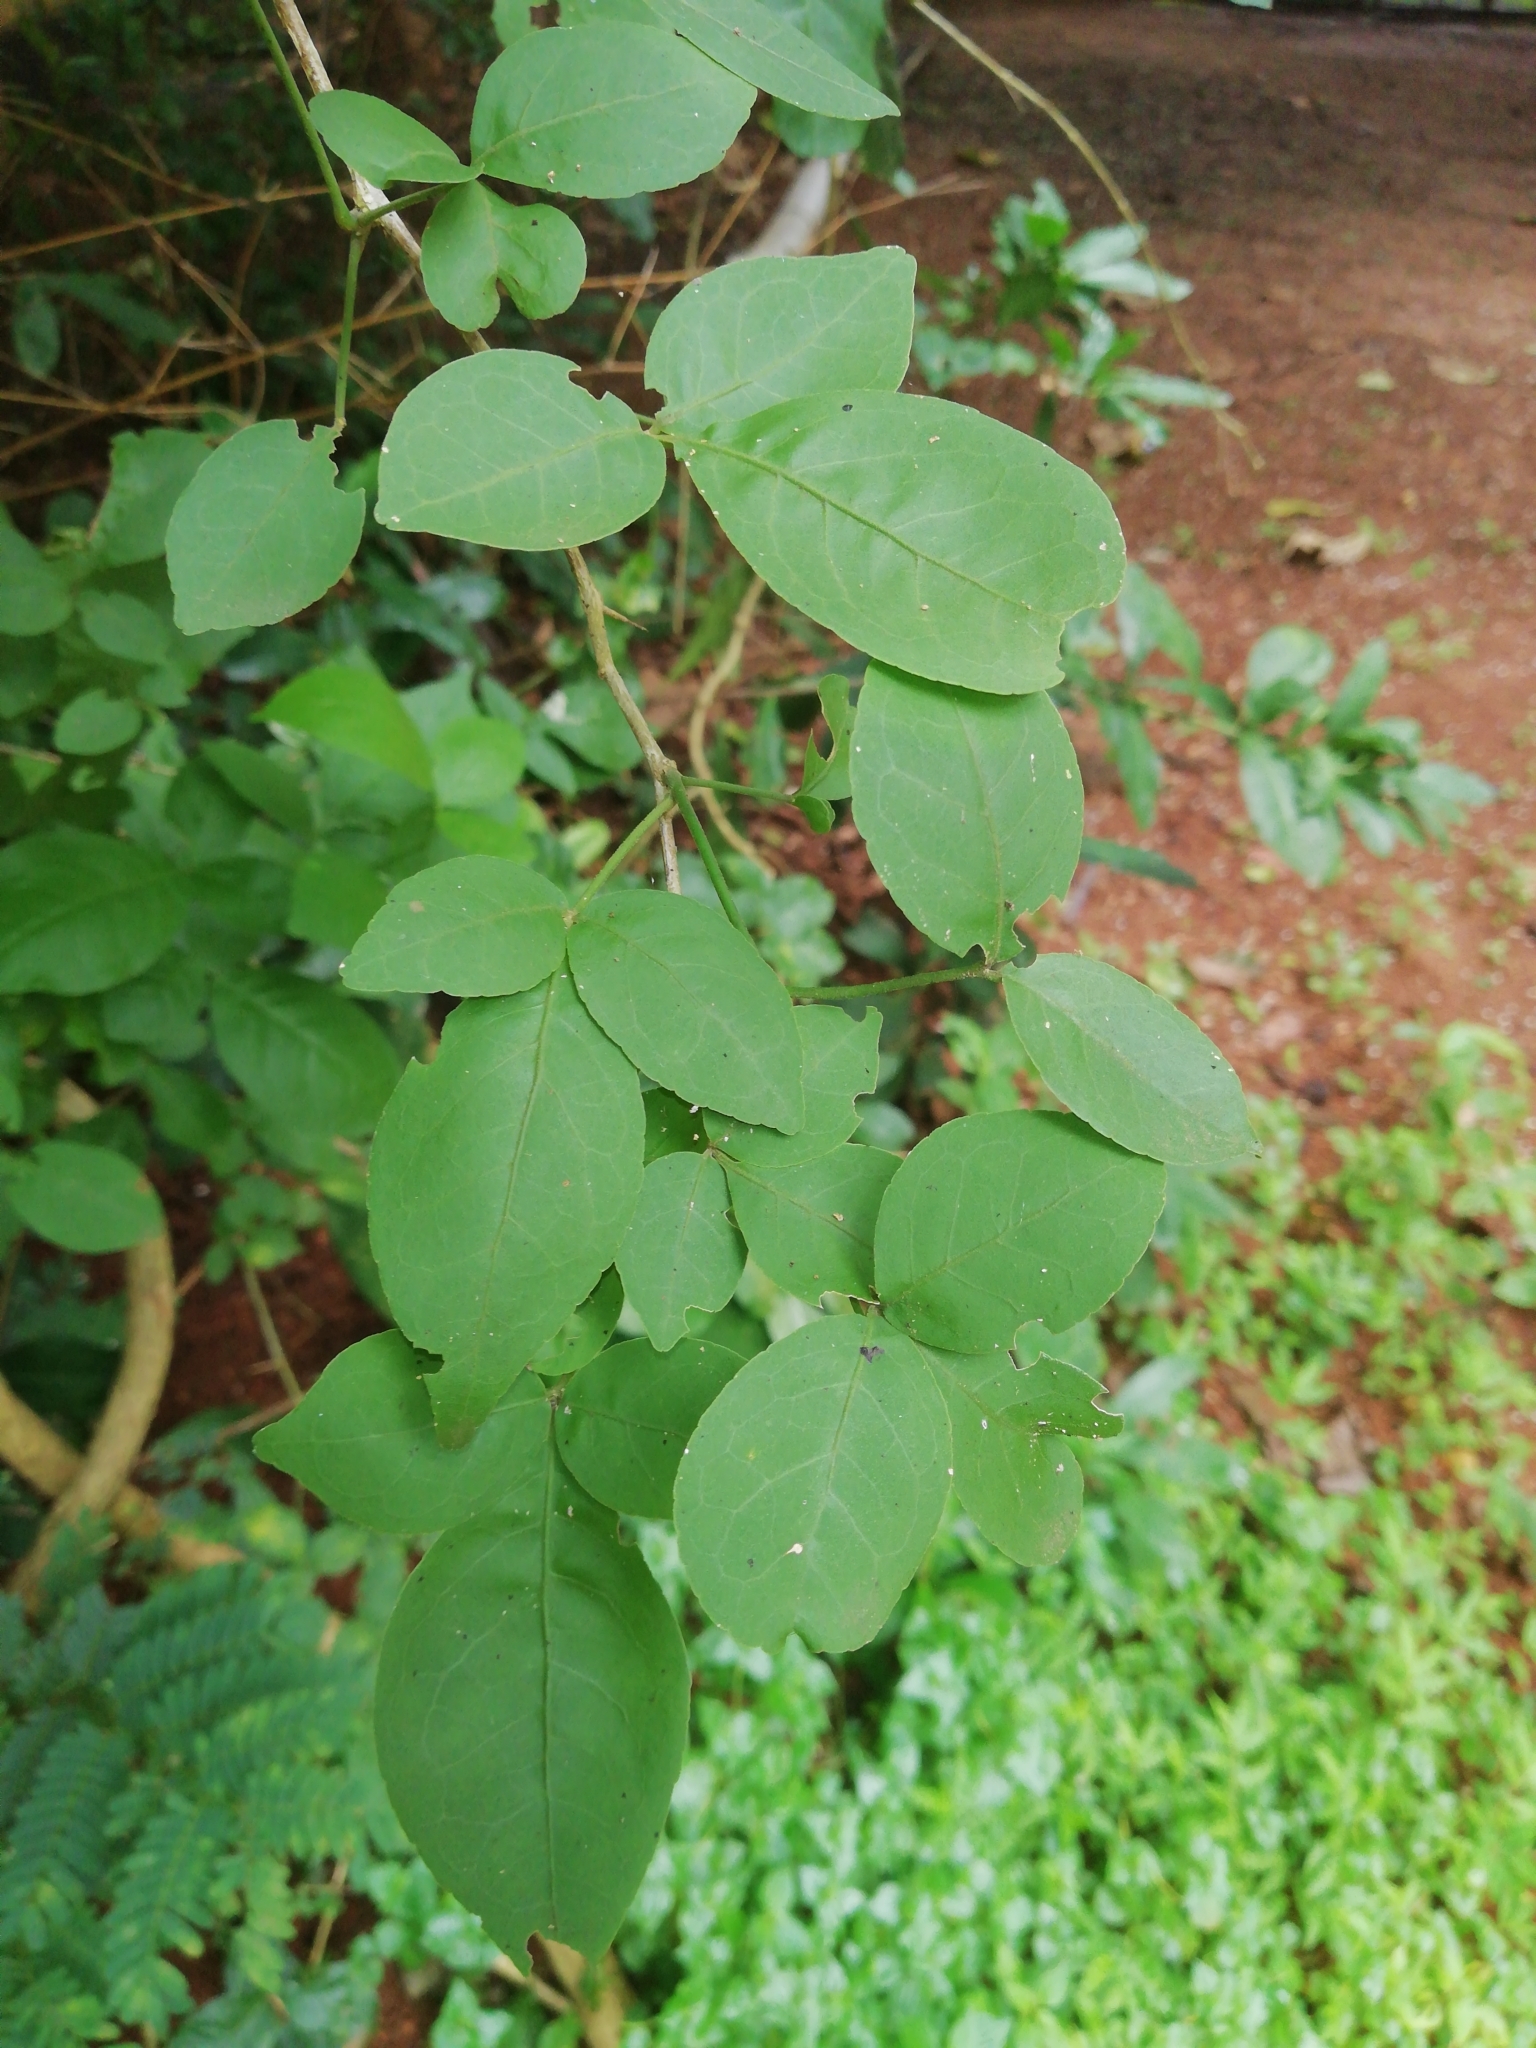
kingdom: Plantae
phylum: Tracheophyta
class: Magnoliopsida
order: Sapindales
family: Rutaceae
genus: Aegle
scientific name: Aegle marmelos
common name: Bael
